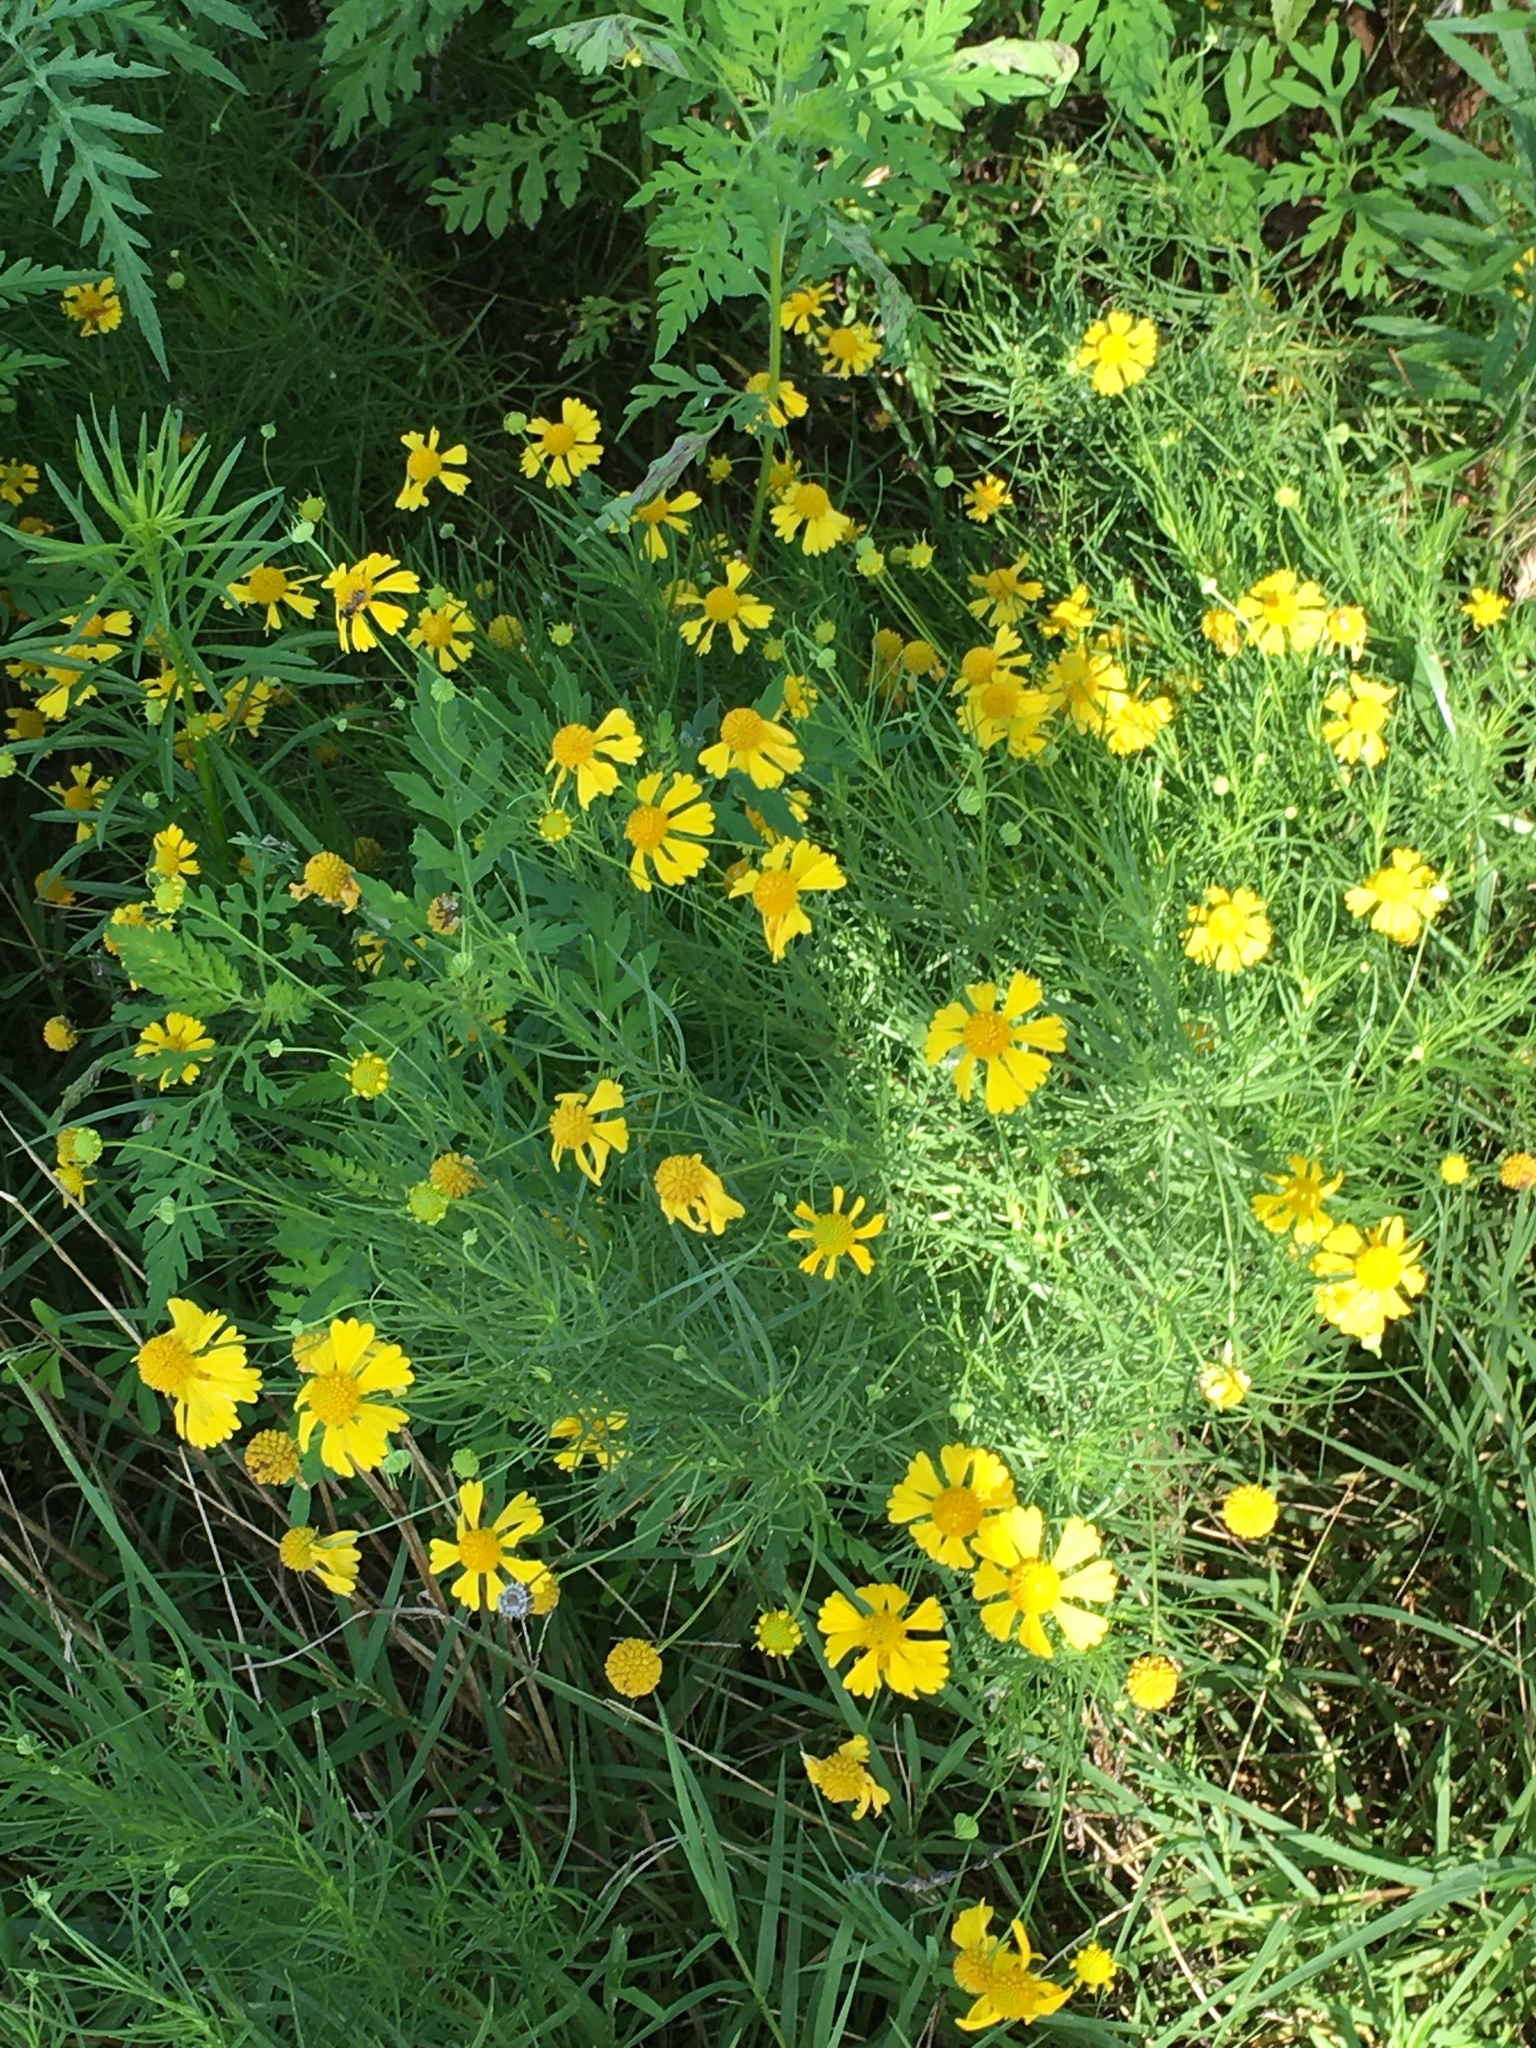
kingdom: Plantae
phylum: Tracheophyta
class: Magnoliopsida
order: Asterales
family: Asteraceae
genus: Helenium
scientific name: Helenium amarum
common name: Bitter sneezeweed
